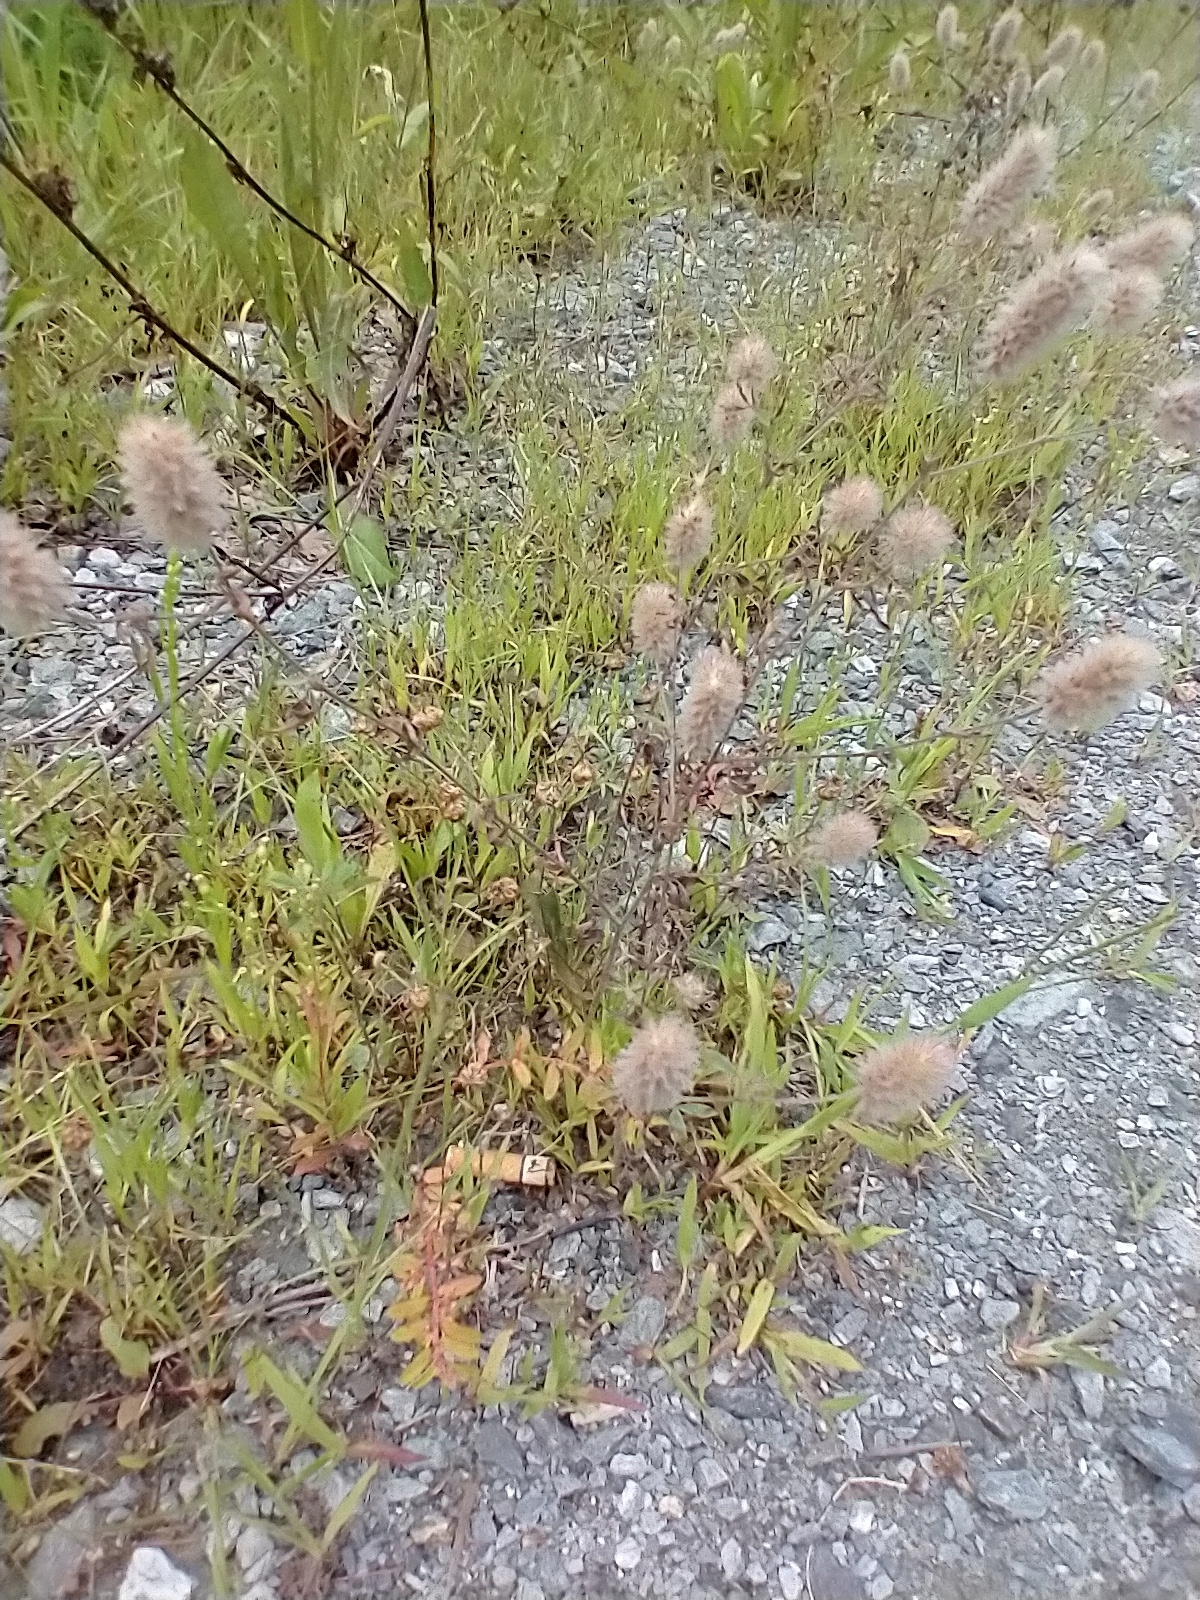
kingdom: Plantae
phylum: Tracheophyta
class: Magnoliopsida
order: Fabales
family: Fabaceae
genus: Trifolium
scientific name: Trifolium arvense
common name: Hare's-foot clover
